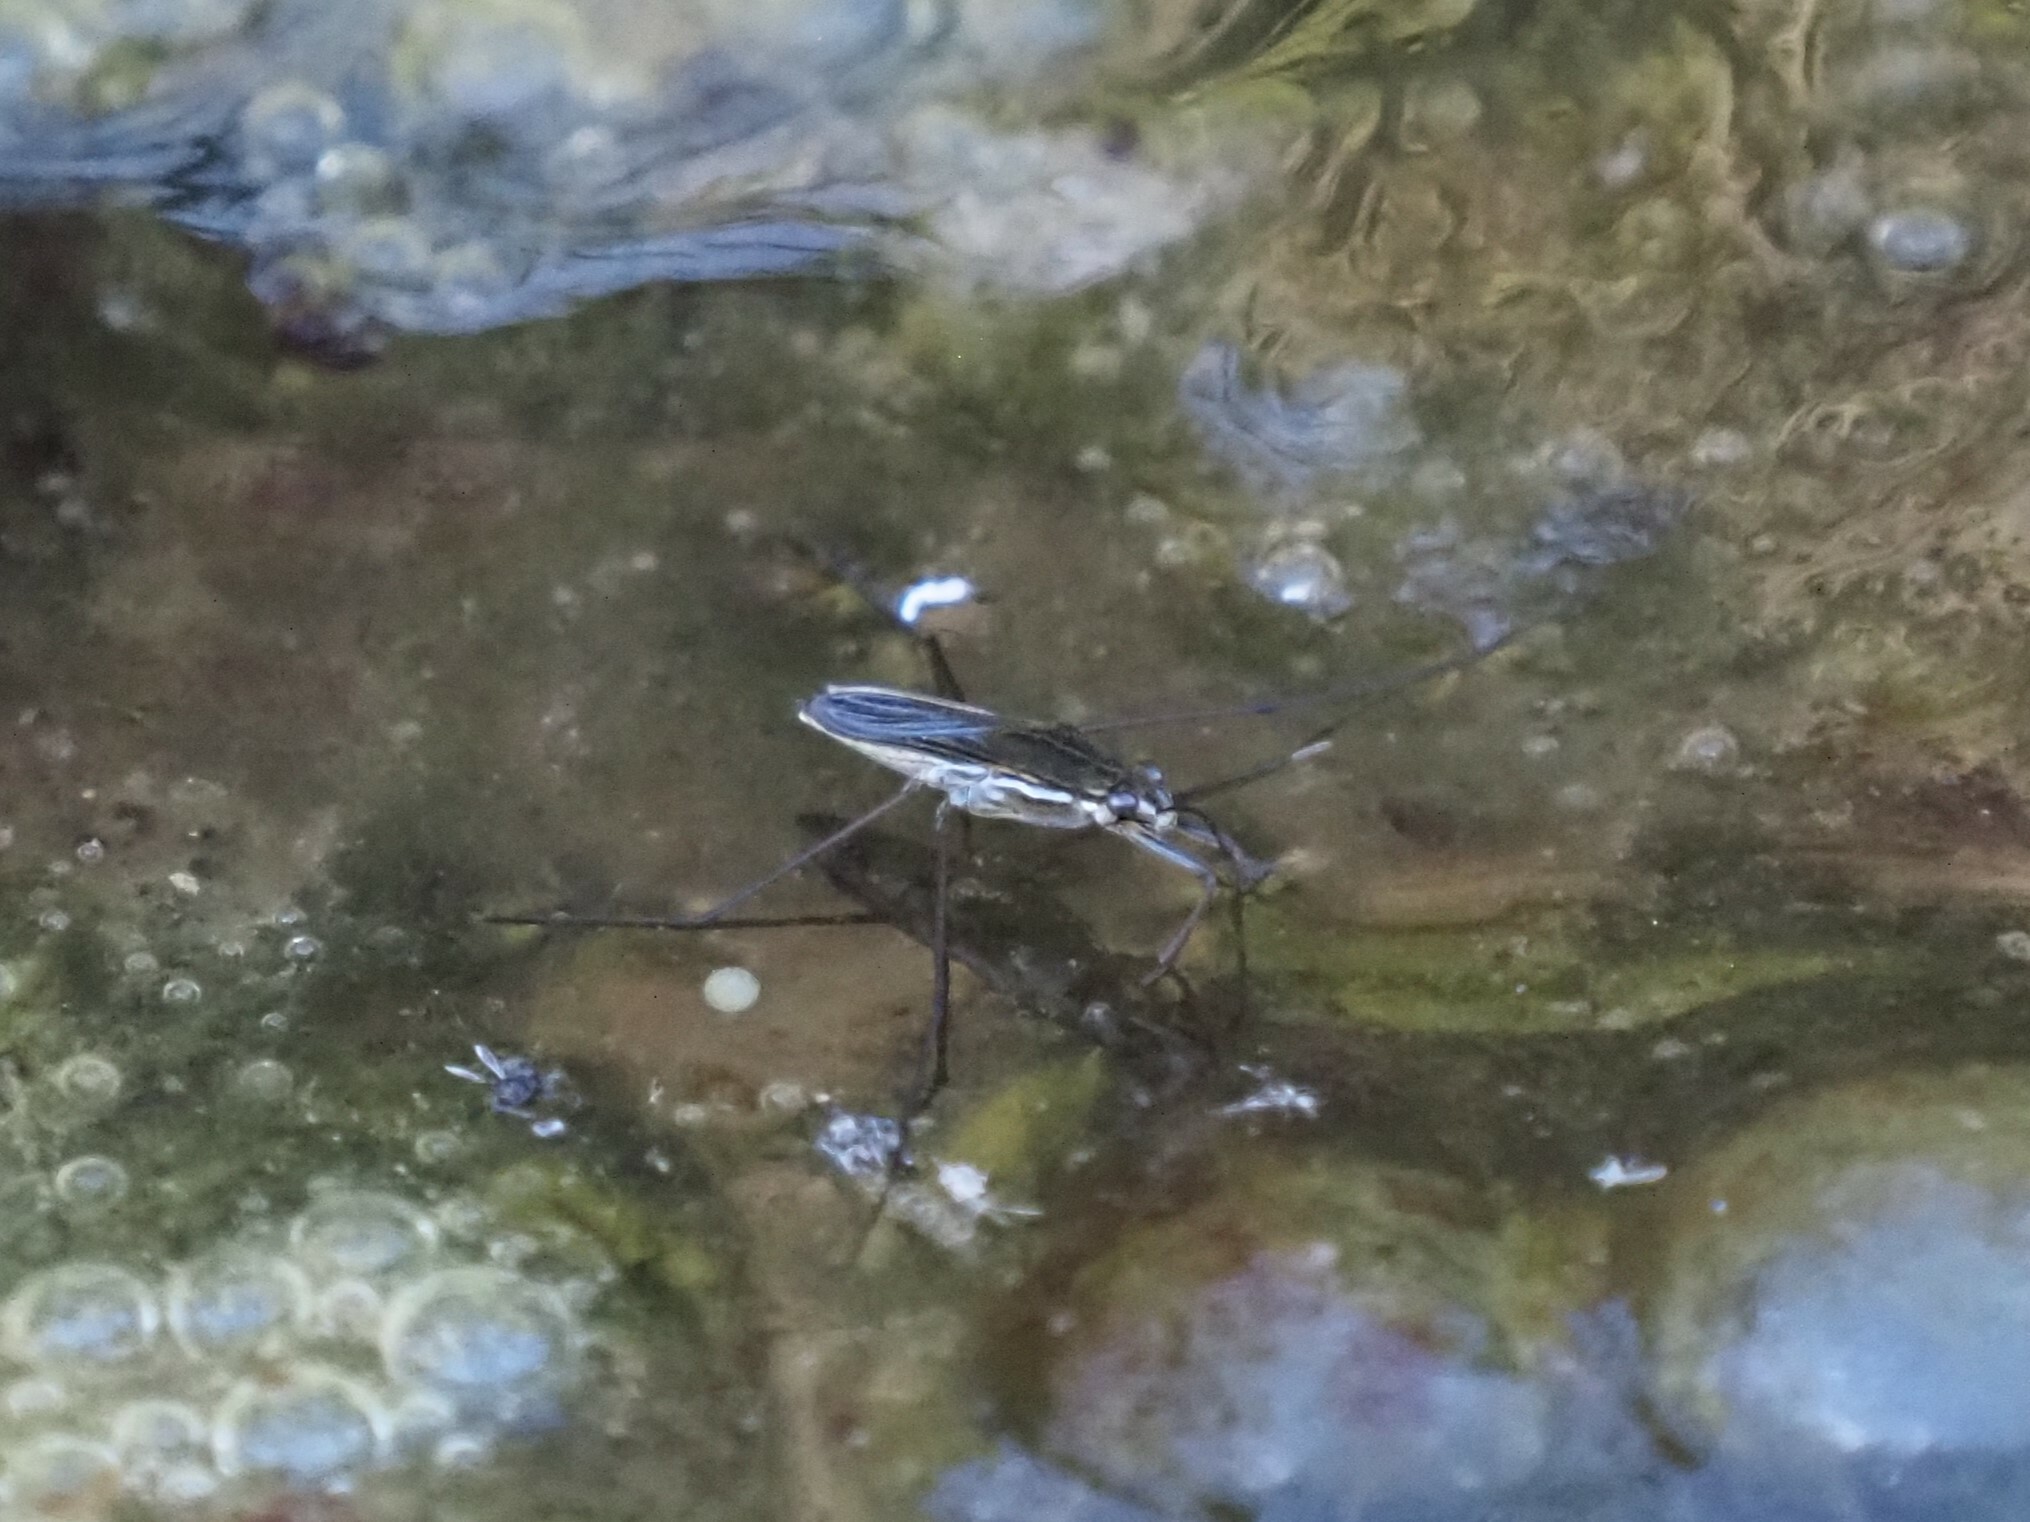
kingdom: Animalia
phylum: Arthropoda
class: Insecta
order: Hemiptera
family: Gerridae
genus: Gerris
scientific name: Gerris buenoi
